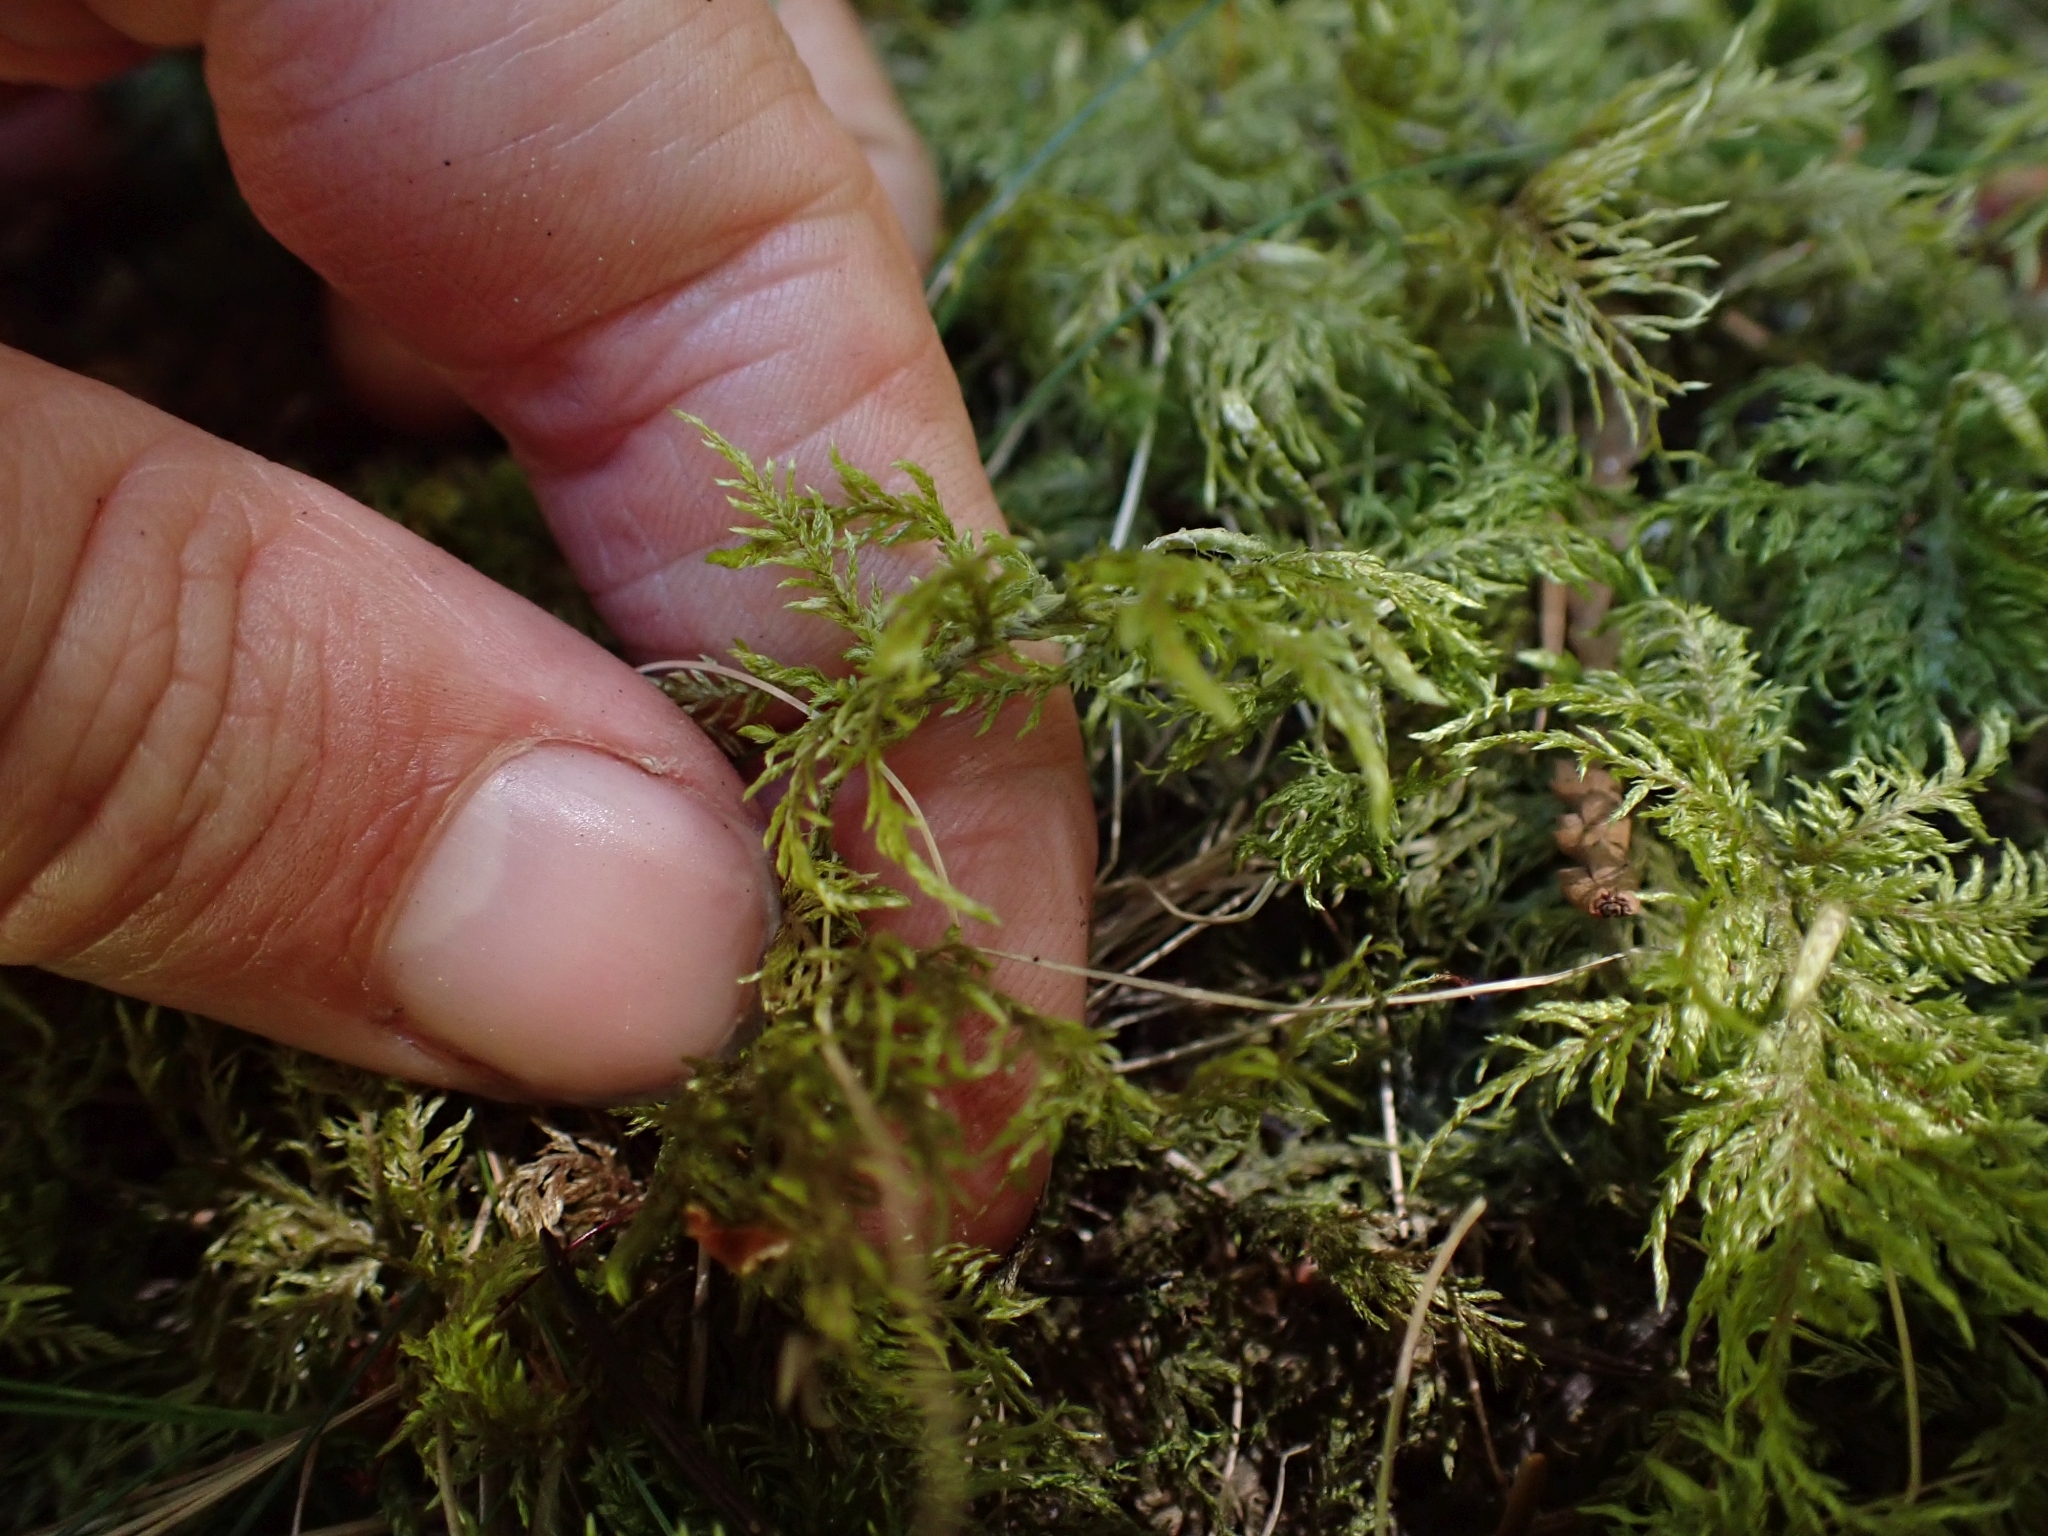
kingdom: Plantae
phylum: Bryophyta
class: Bryopsida
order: Hypnales
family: Hylocomiaceae
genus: Hylocomium
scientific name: Hylocomium splendens
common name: Stairstep moss
